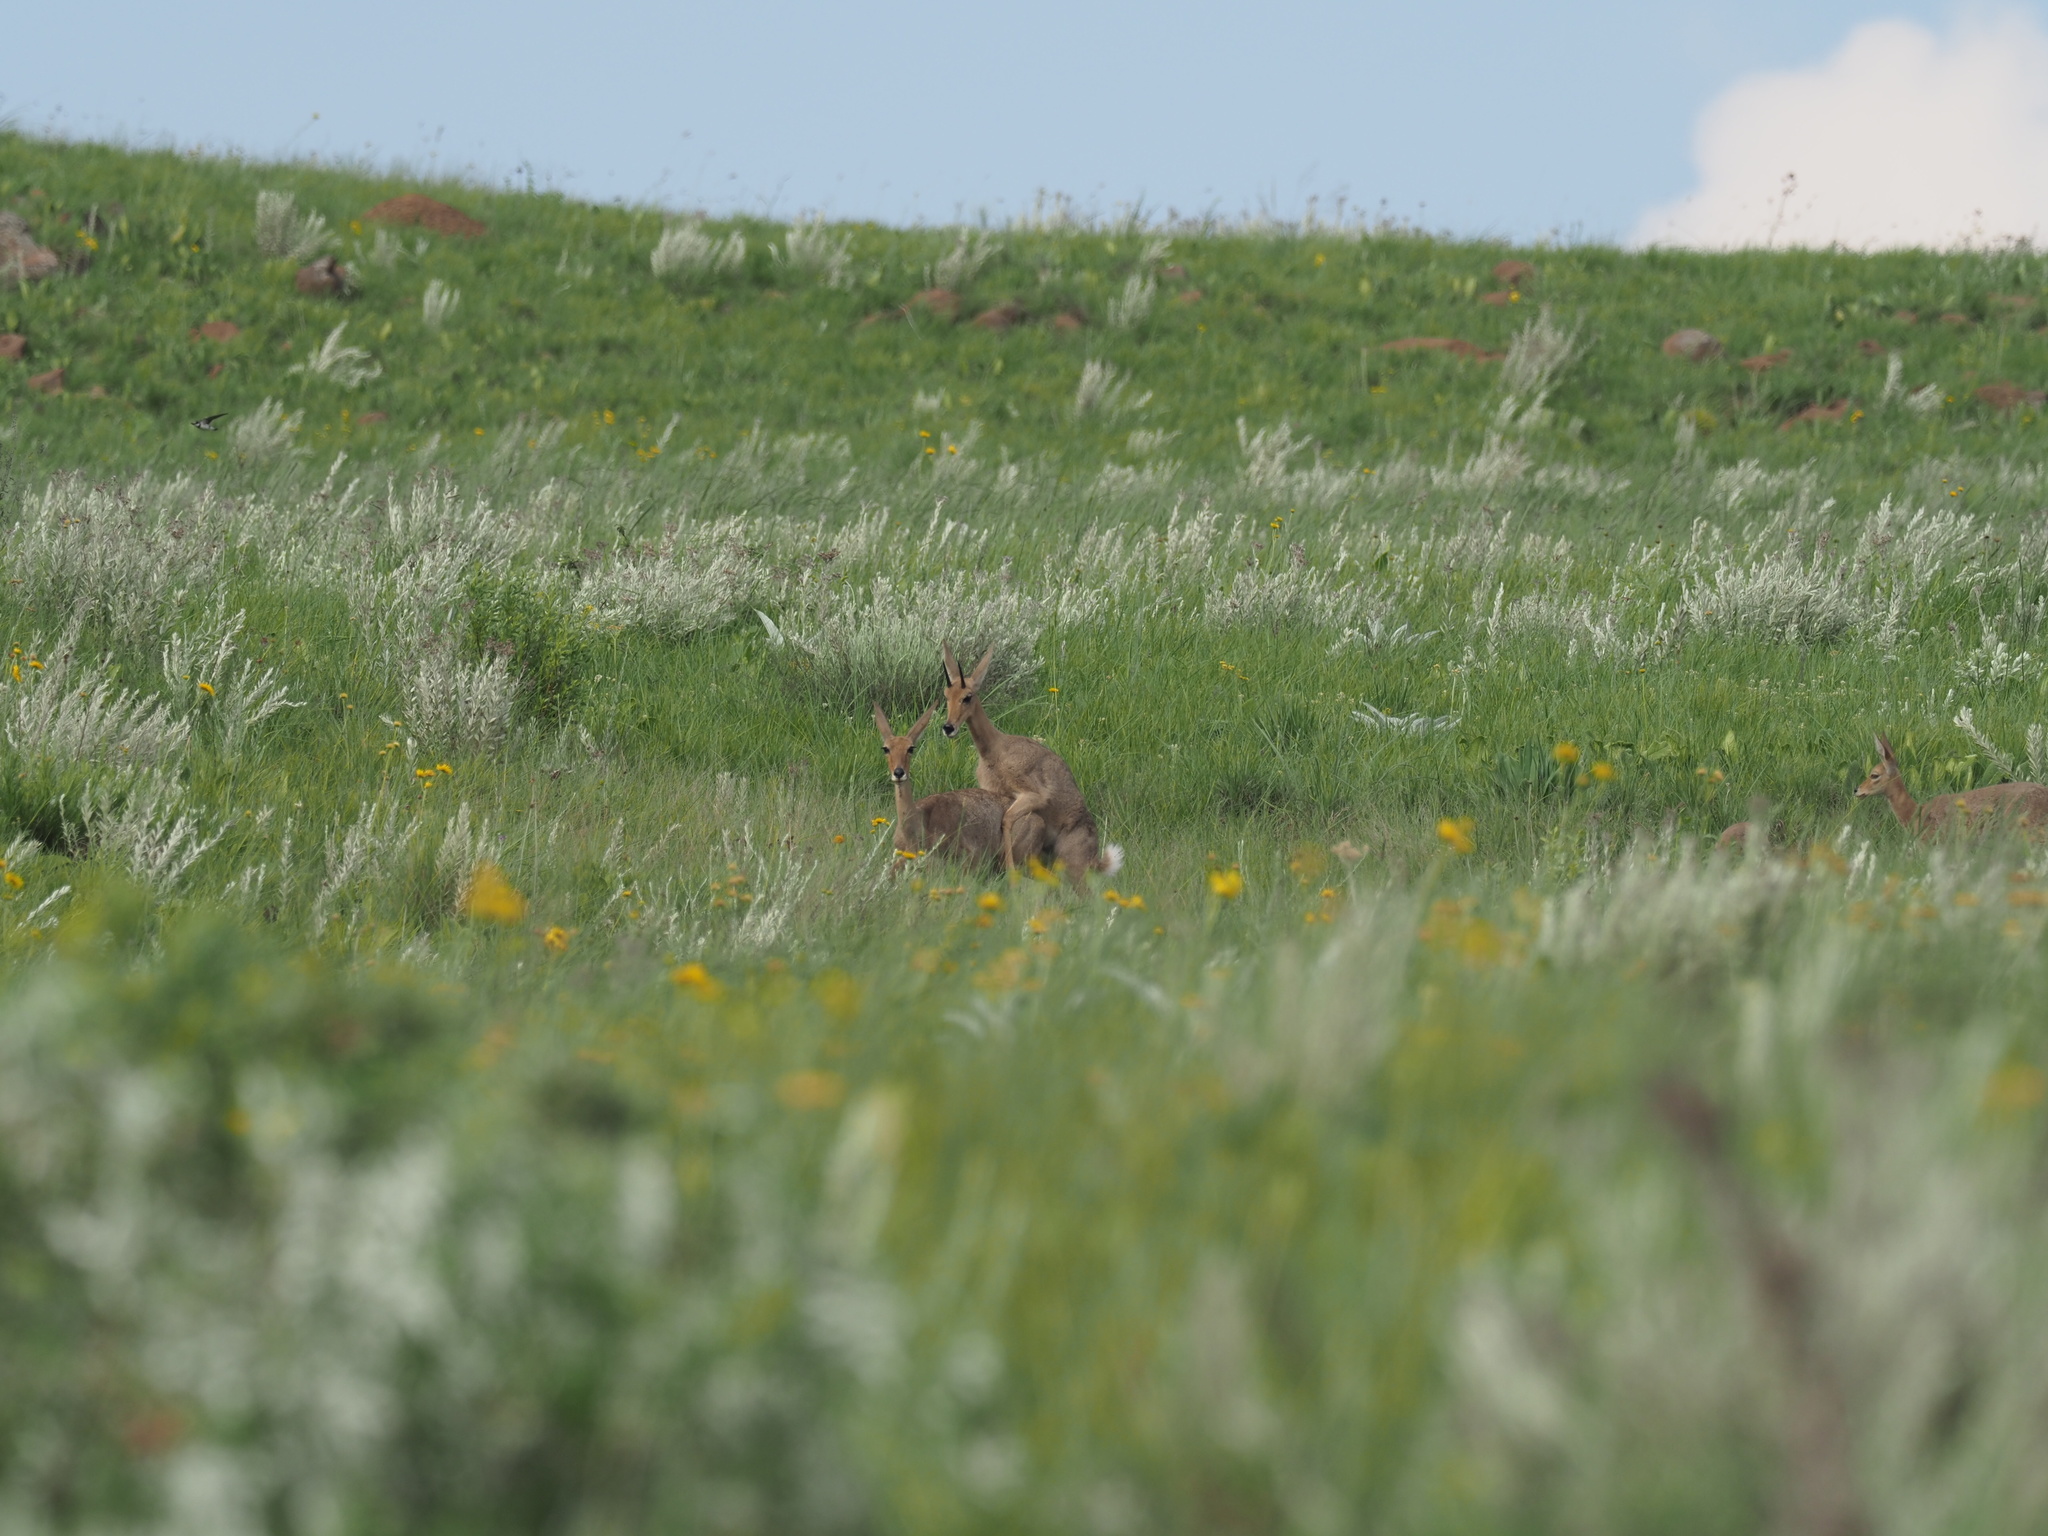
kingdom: Animalia
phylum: Chordata
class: Mammalia
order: Artiodactyla
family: Bovidae
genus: Pelea
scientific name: Pelea capreolus
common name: Common rhebok
